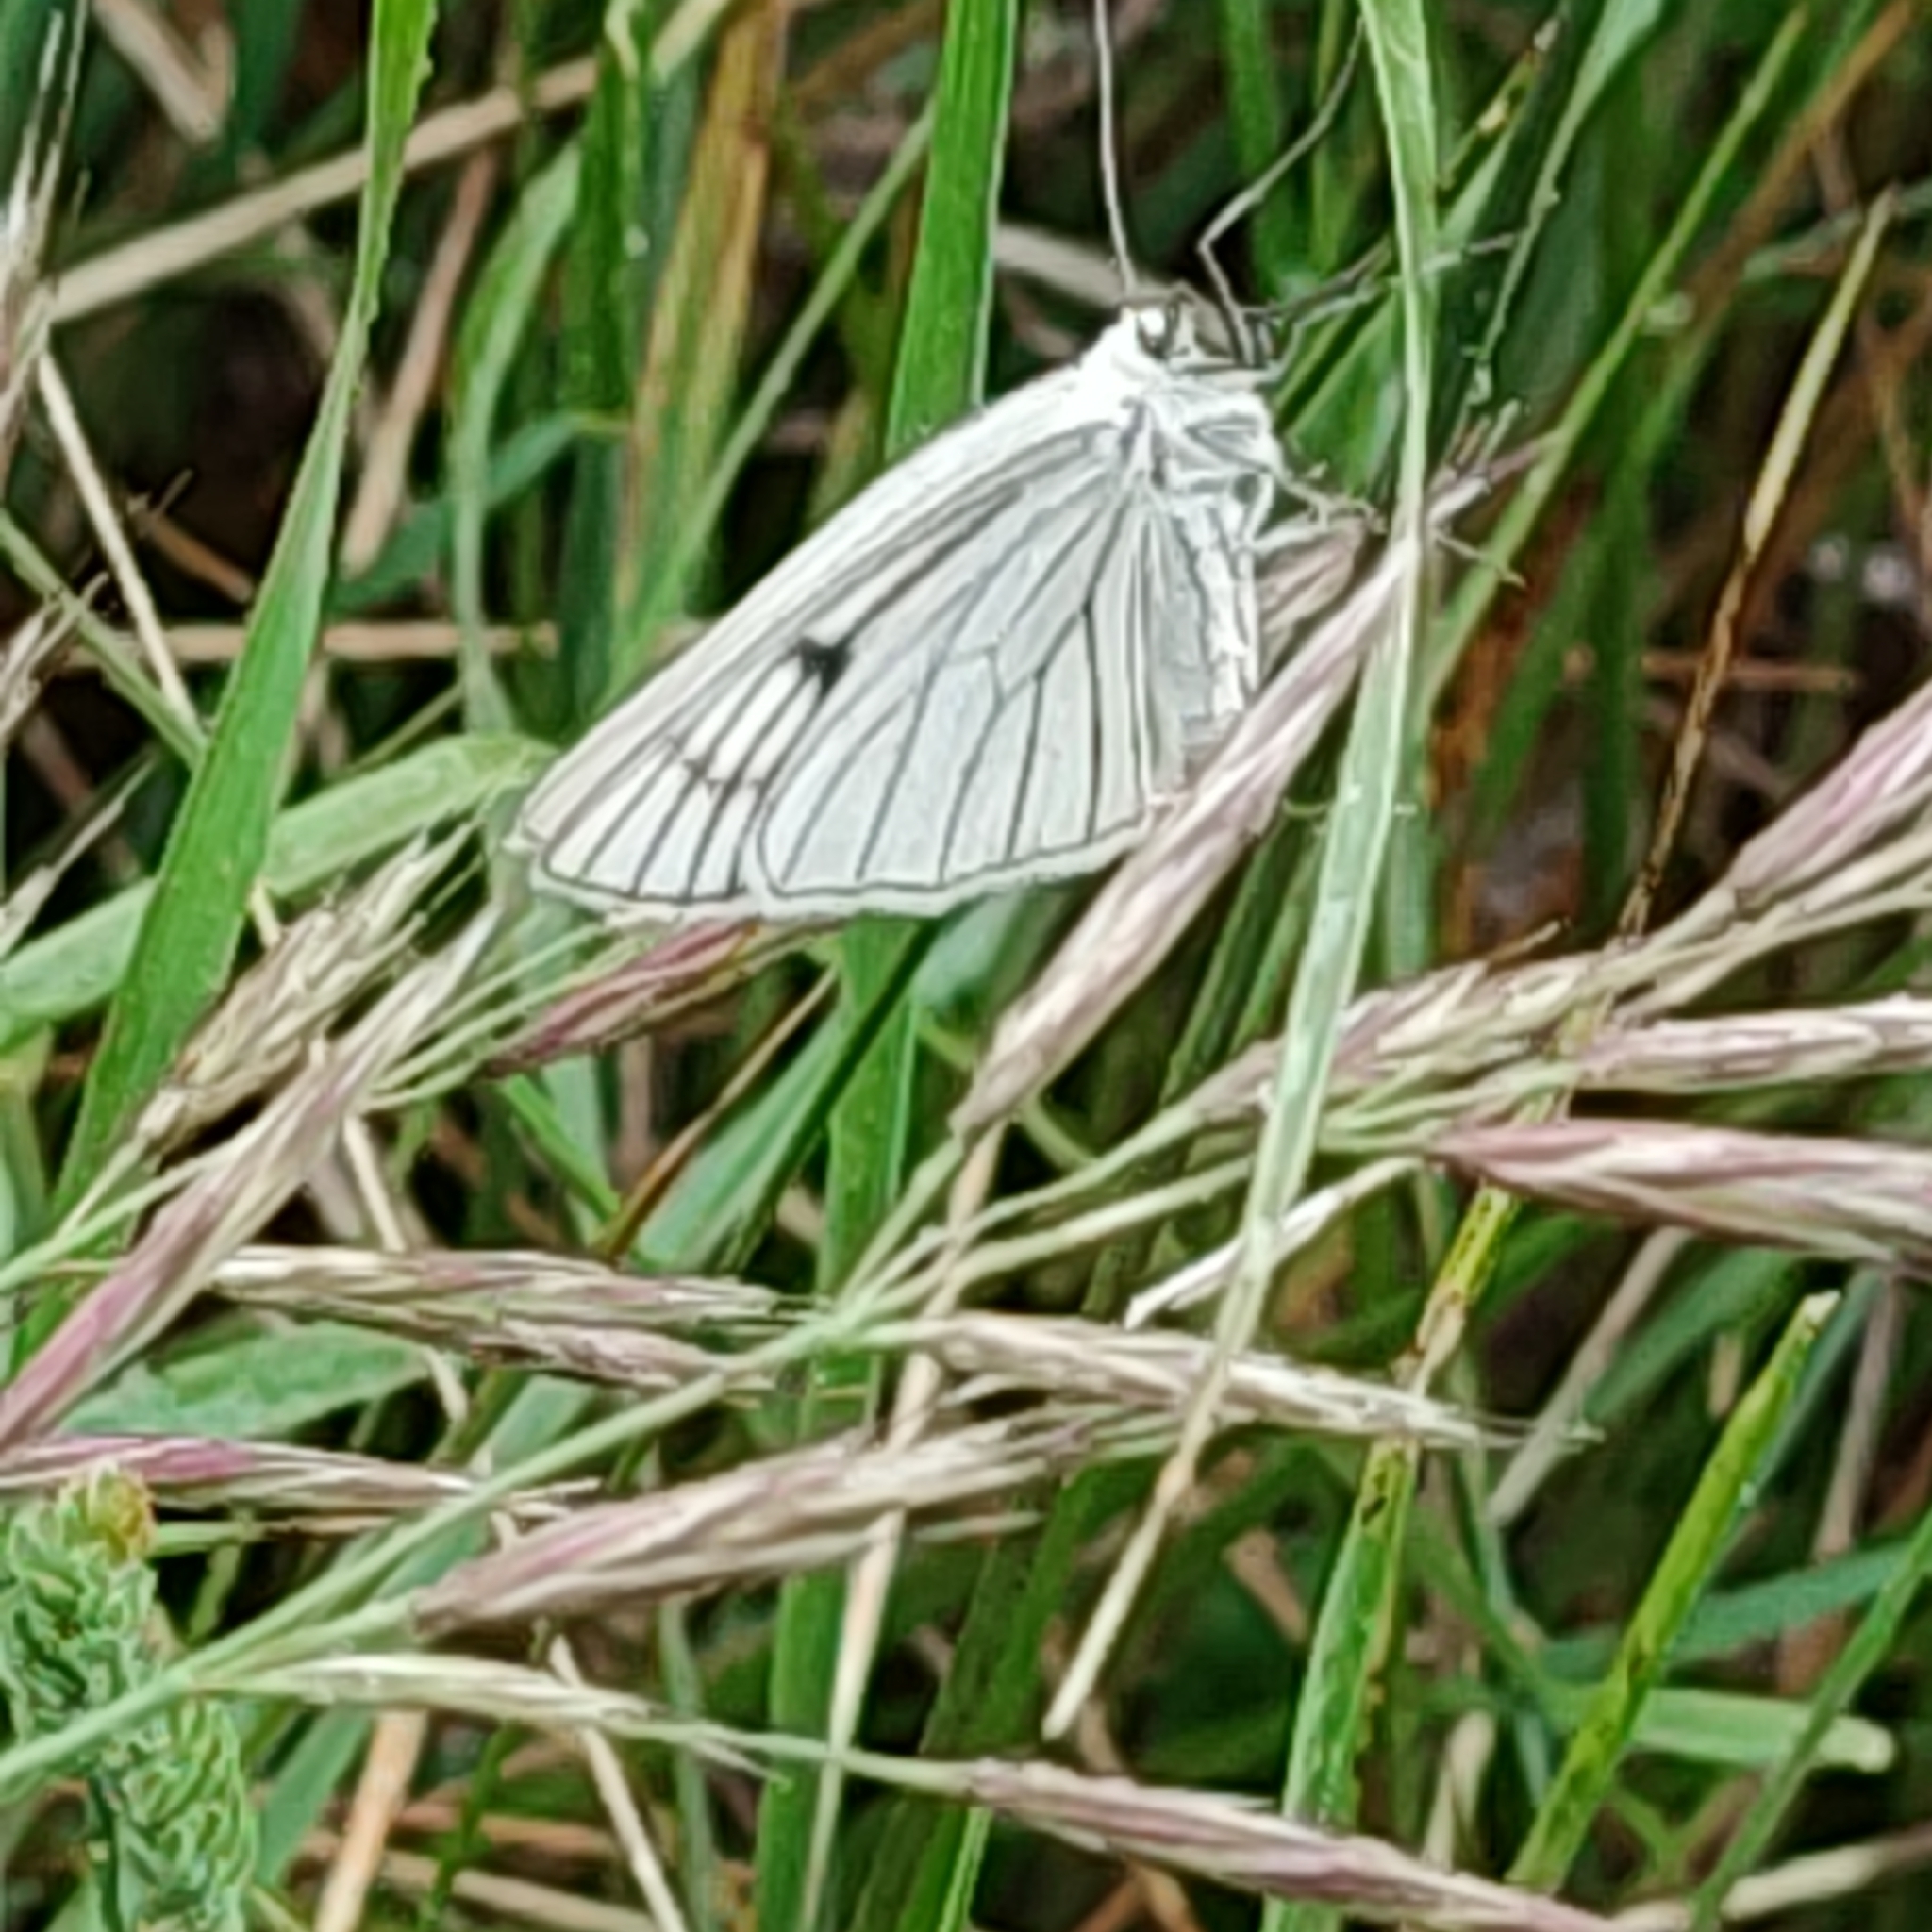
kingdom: Animalia
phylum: Arthropoda
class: Insecta
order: Lepidoptera
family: Geometridae
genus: Siona
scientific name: Siona lineata
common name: Black-veined moth
